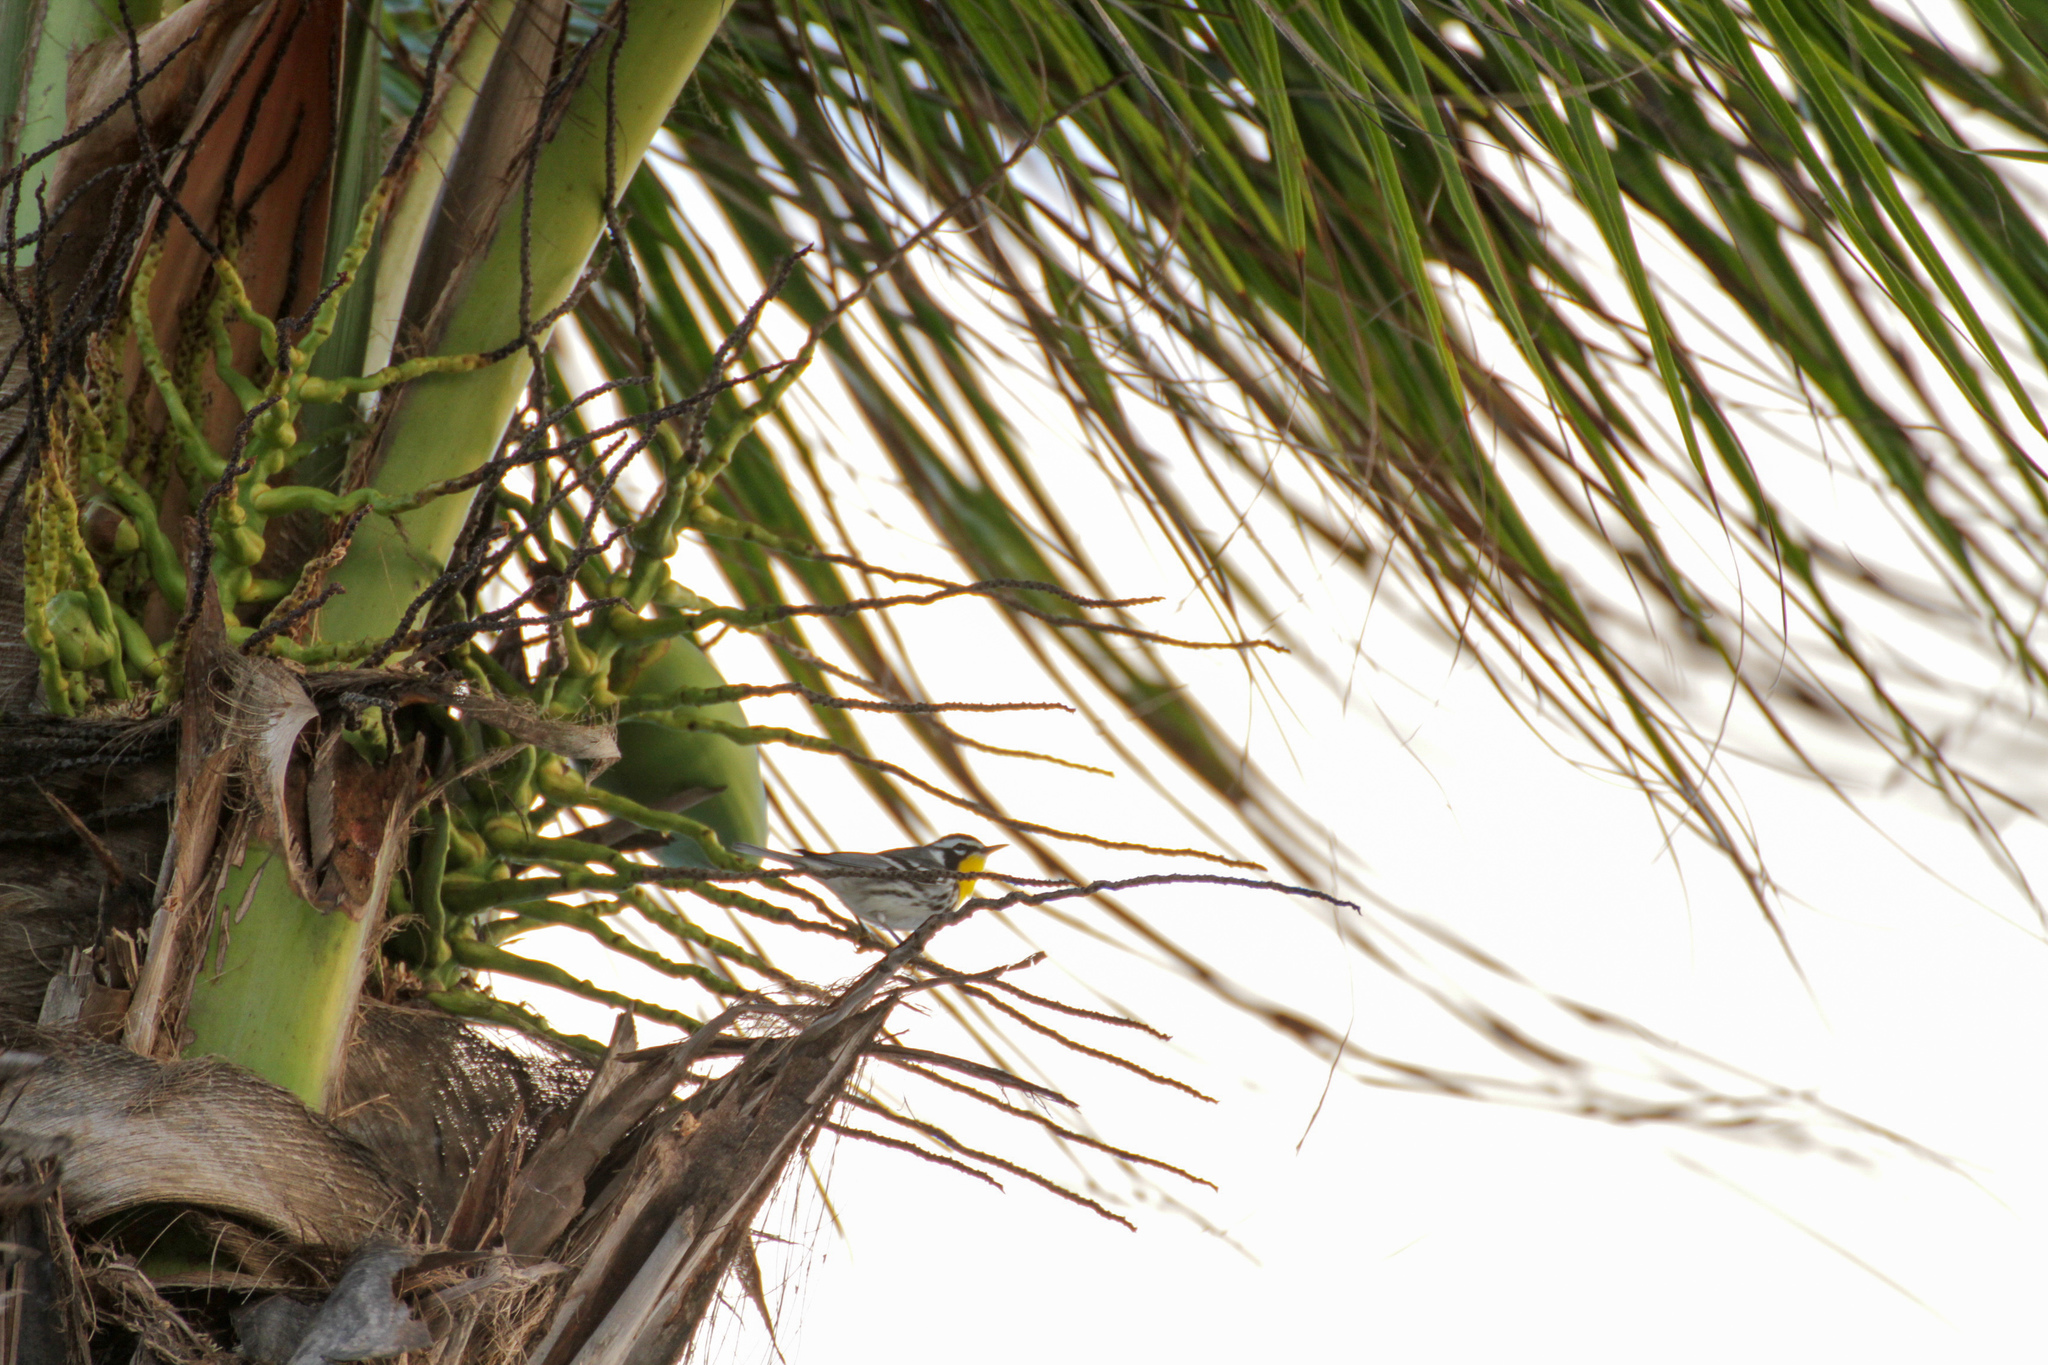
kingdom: Animalia
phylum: Chordata
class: Aves
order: Passeriformes
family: Parulidae
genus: Setophaga
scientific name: Setophaga dominica
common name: Yellow-throated warbler
